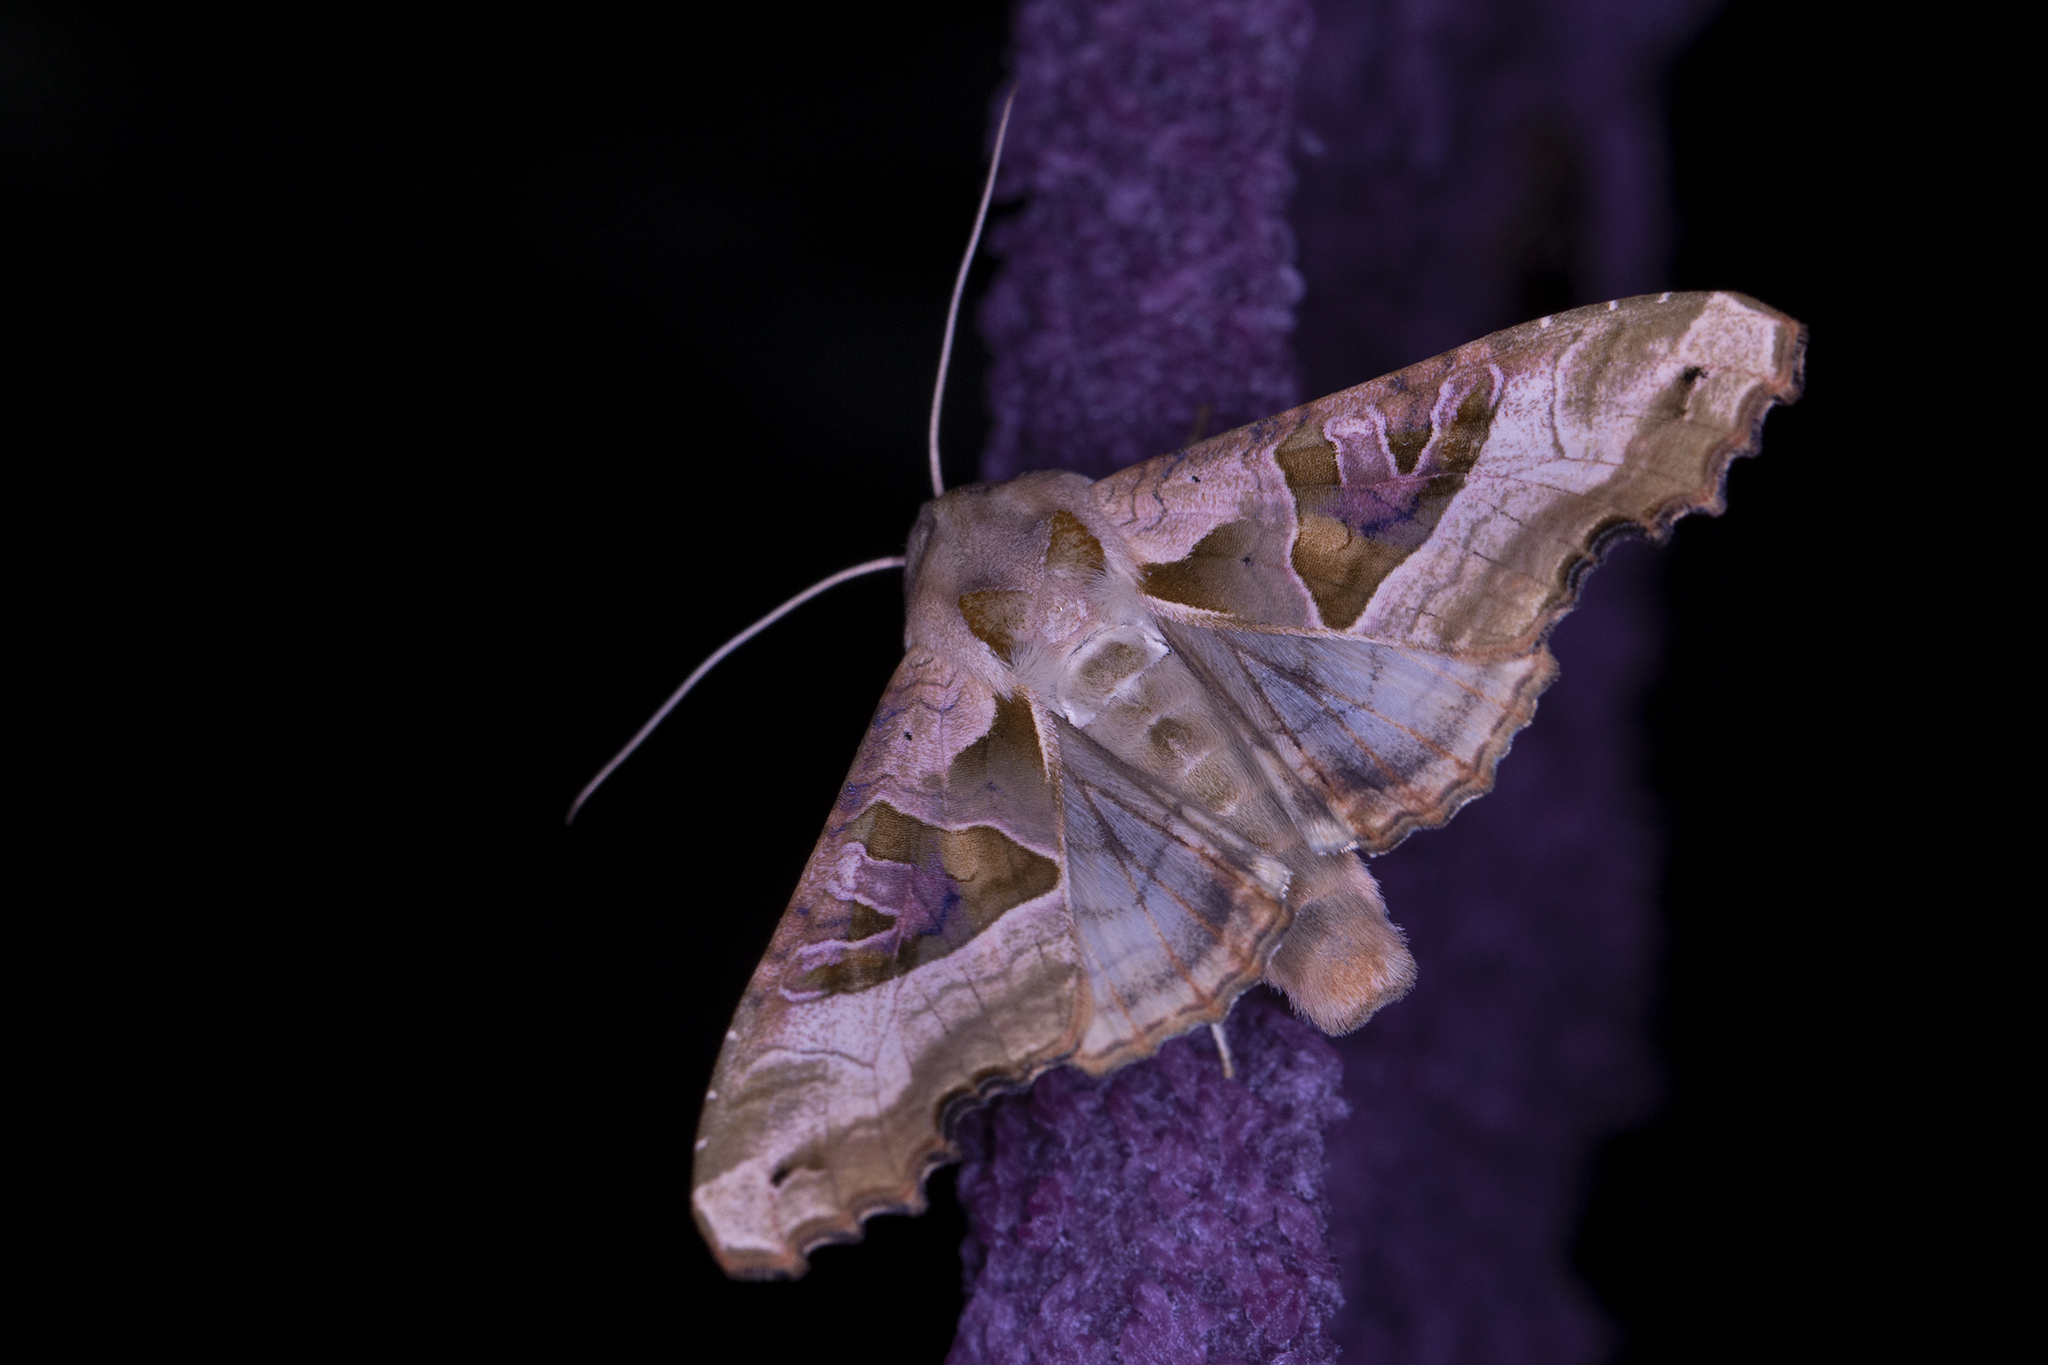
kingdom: Animalia
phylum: Arthropoda
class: Insecta
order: Lepidoptera
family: Noctuidae
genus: Phlogophora
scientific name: Phlogophora meticulosa
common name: Angle shades
